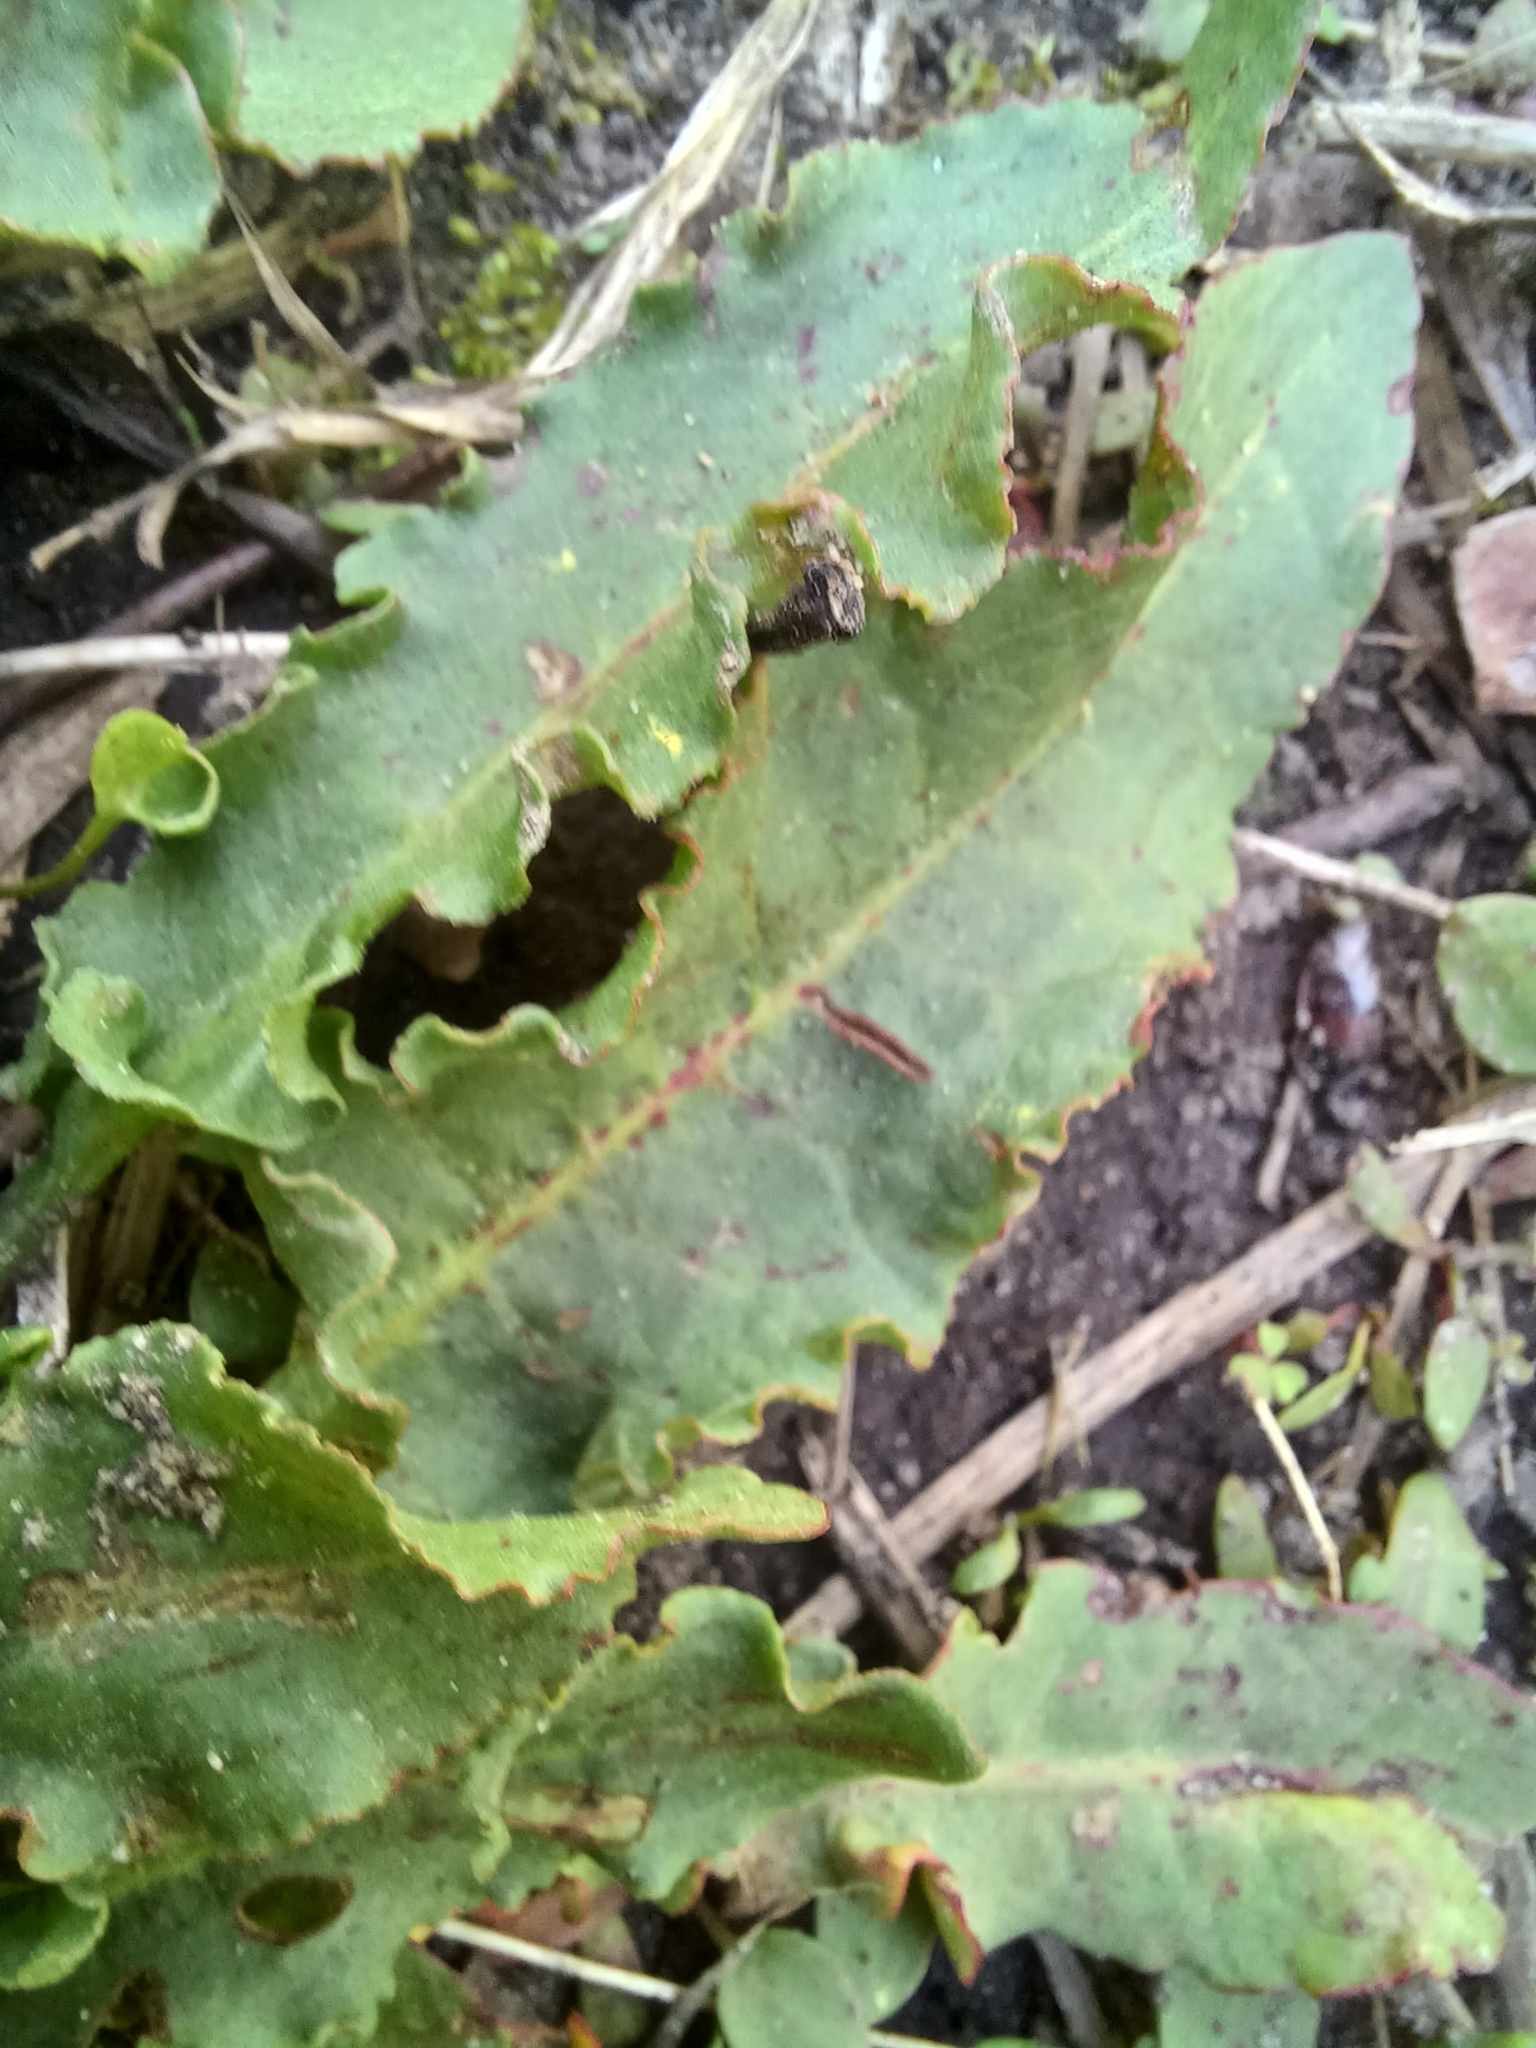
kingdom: Plantae
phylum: Tracheophyta
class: Magnoliopsida
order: Caryophyllales
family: Polygonaceae
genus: Rumex
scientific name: Rumex crispus
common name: Curled dock
